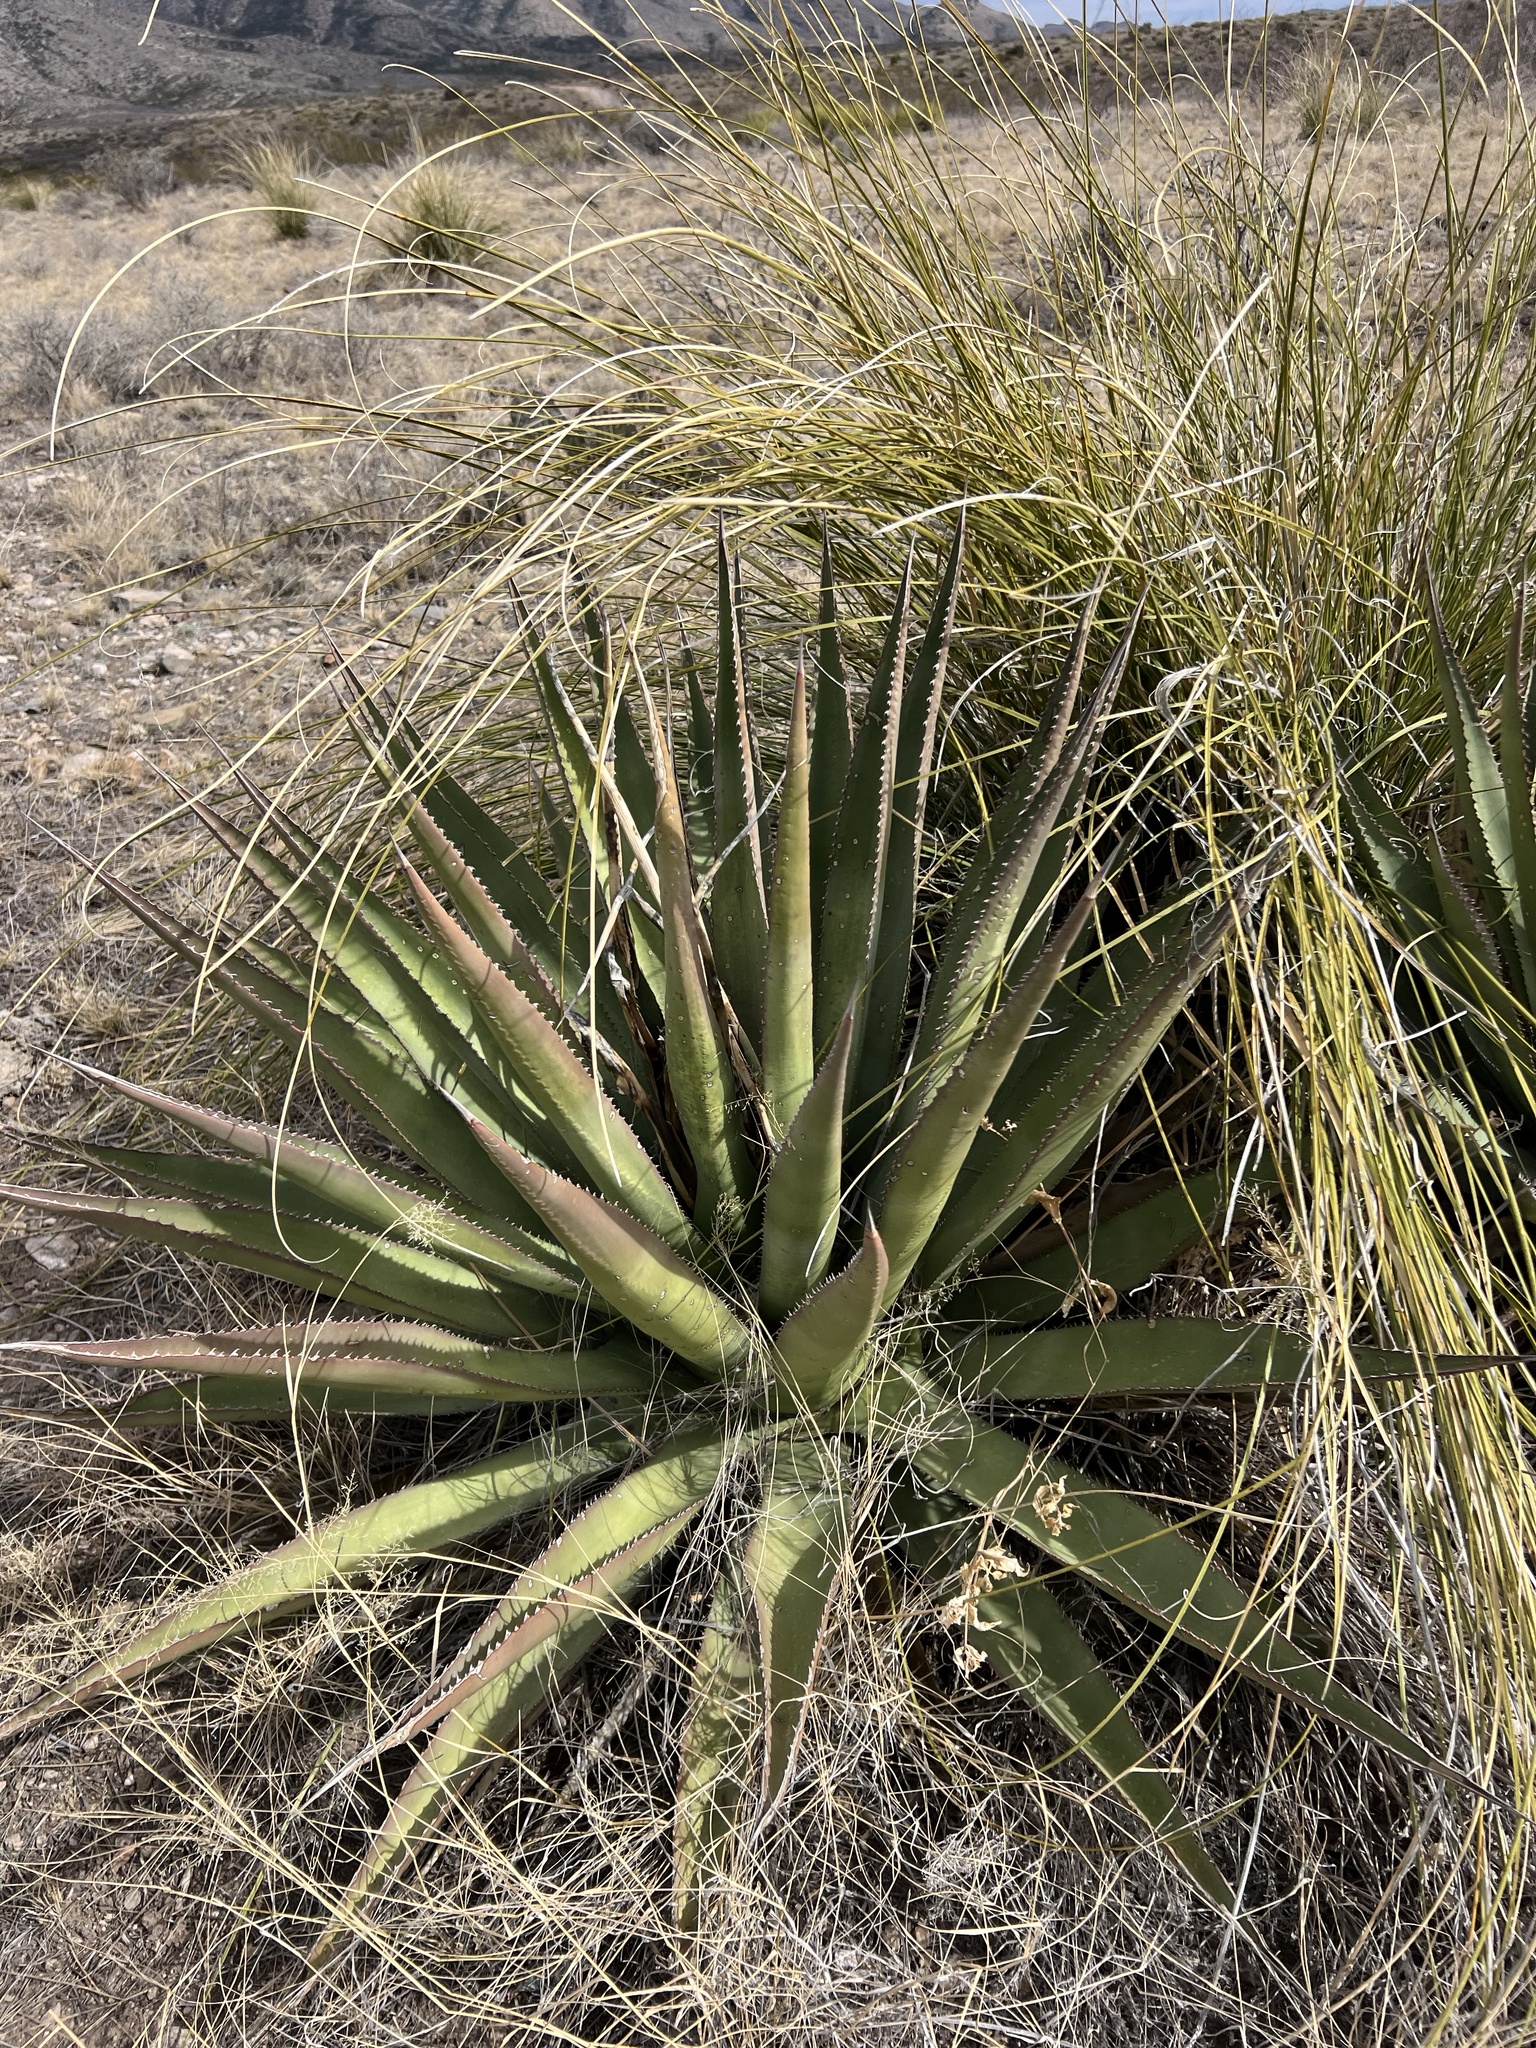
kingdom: Plantae
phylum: Tracheophyta
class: Liliopsida
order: Asparagales
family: Asparagaceae
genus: Agave
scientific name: Agave palmeri
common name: Palmer agave
